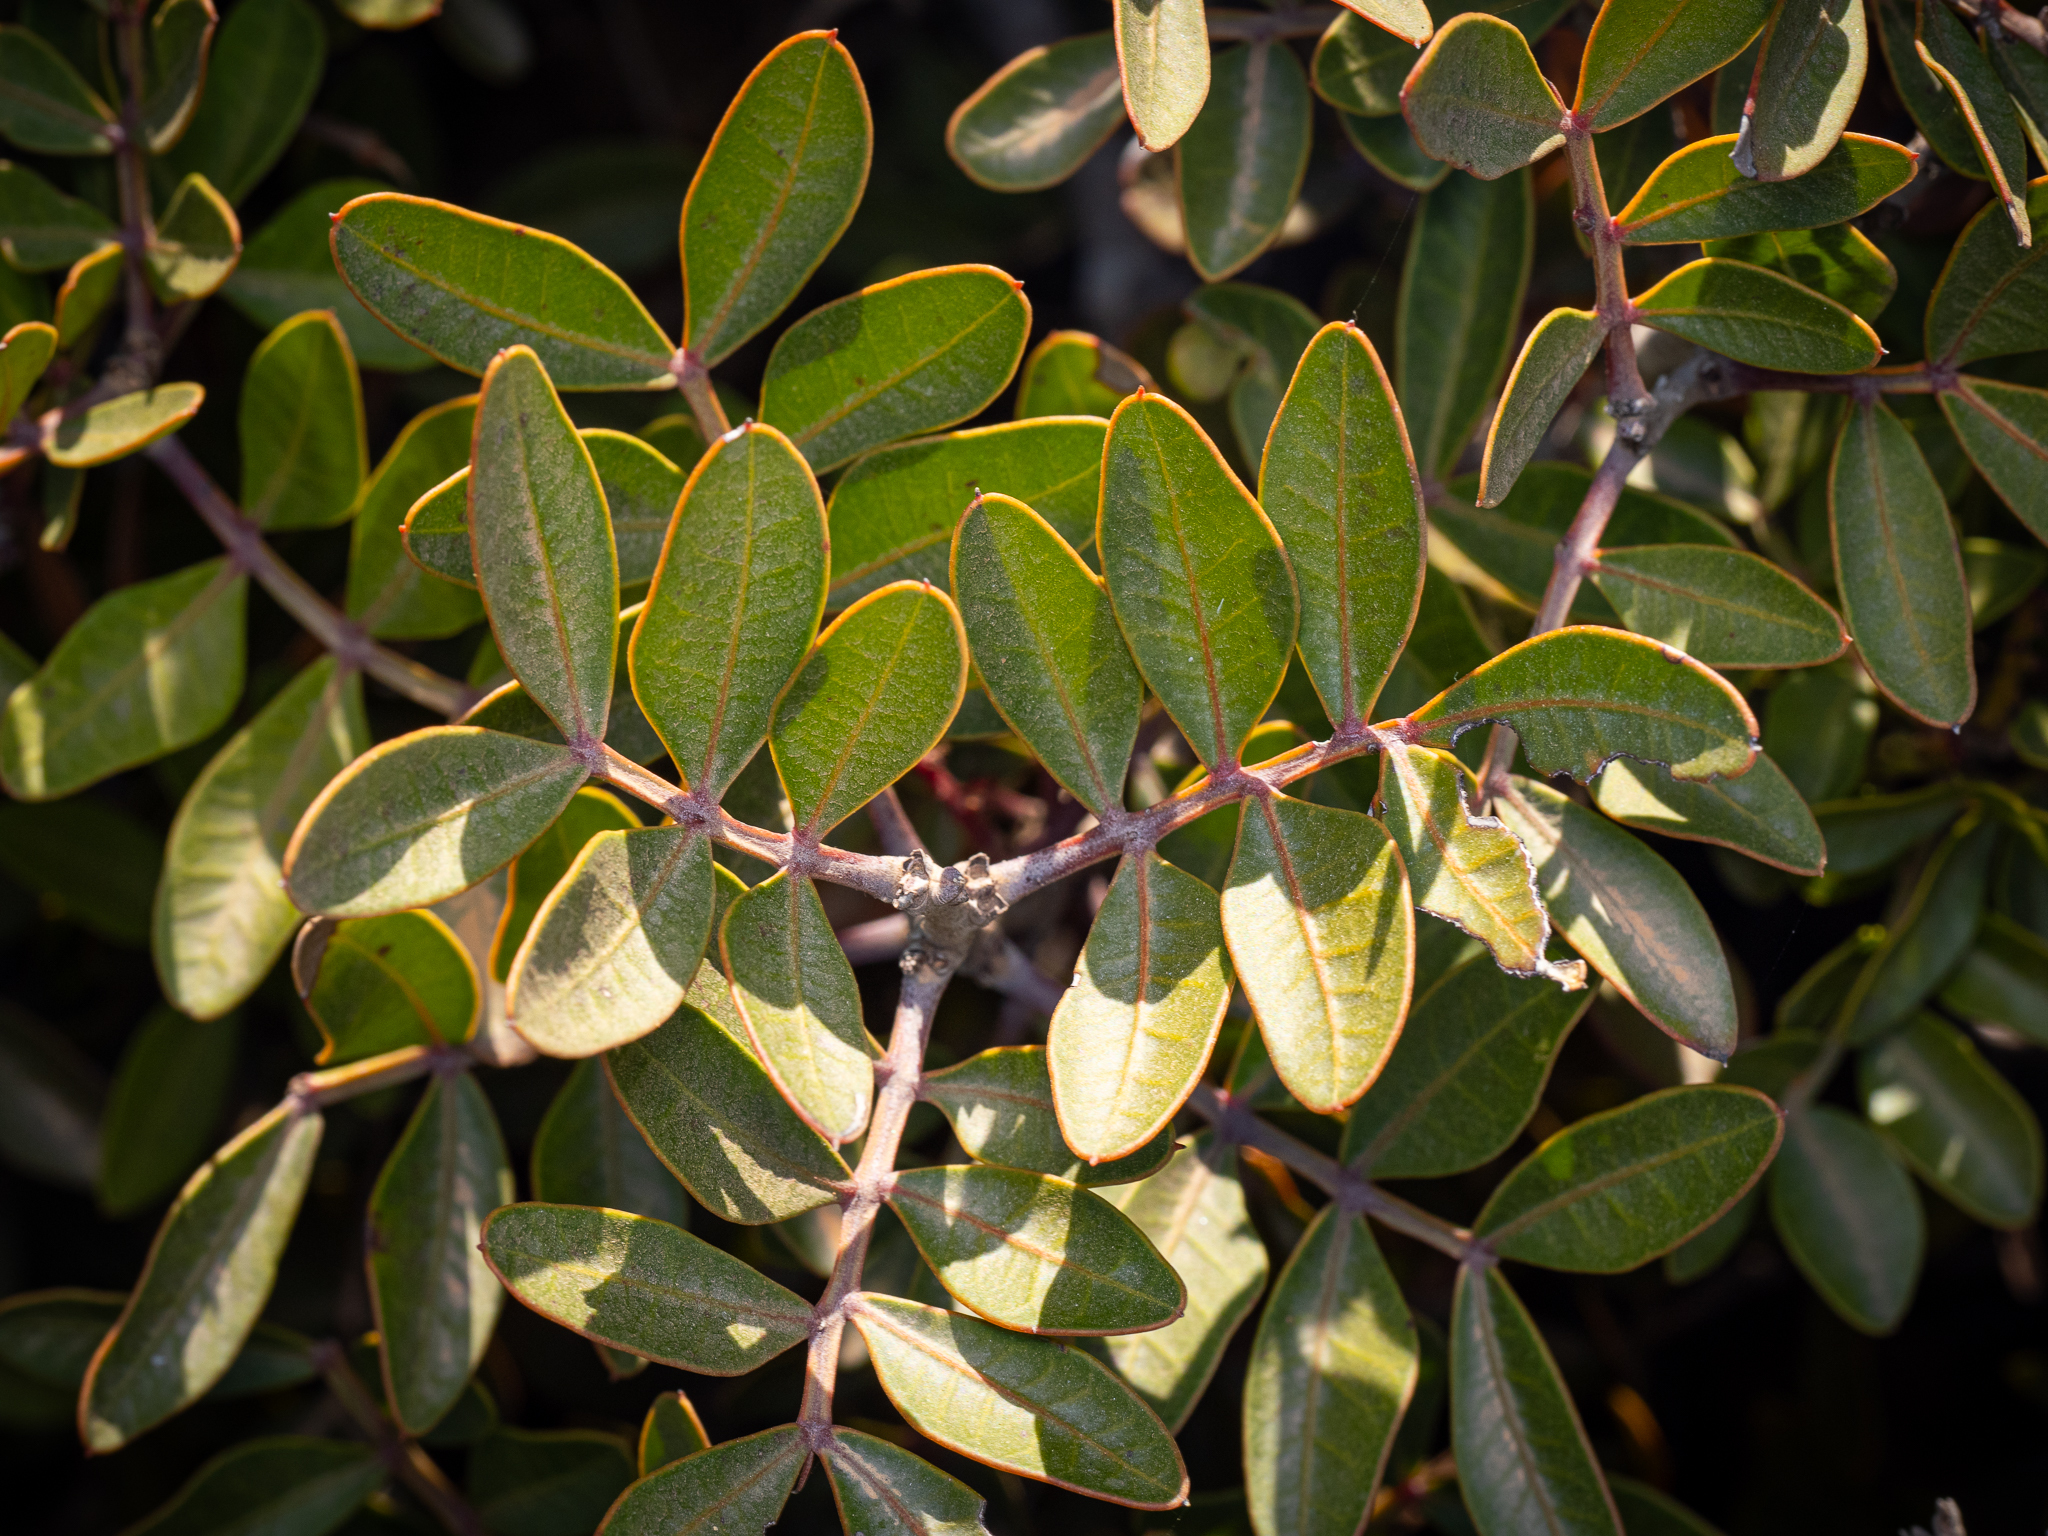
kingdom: Plantae
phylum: Tracheophyta
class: Magnoliopsida
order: Sapindales
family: Anacardiaceae
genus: Pistacia
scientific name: Pistacia lentiscus
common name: Lentisk
